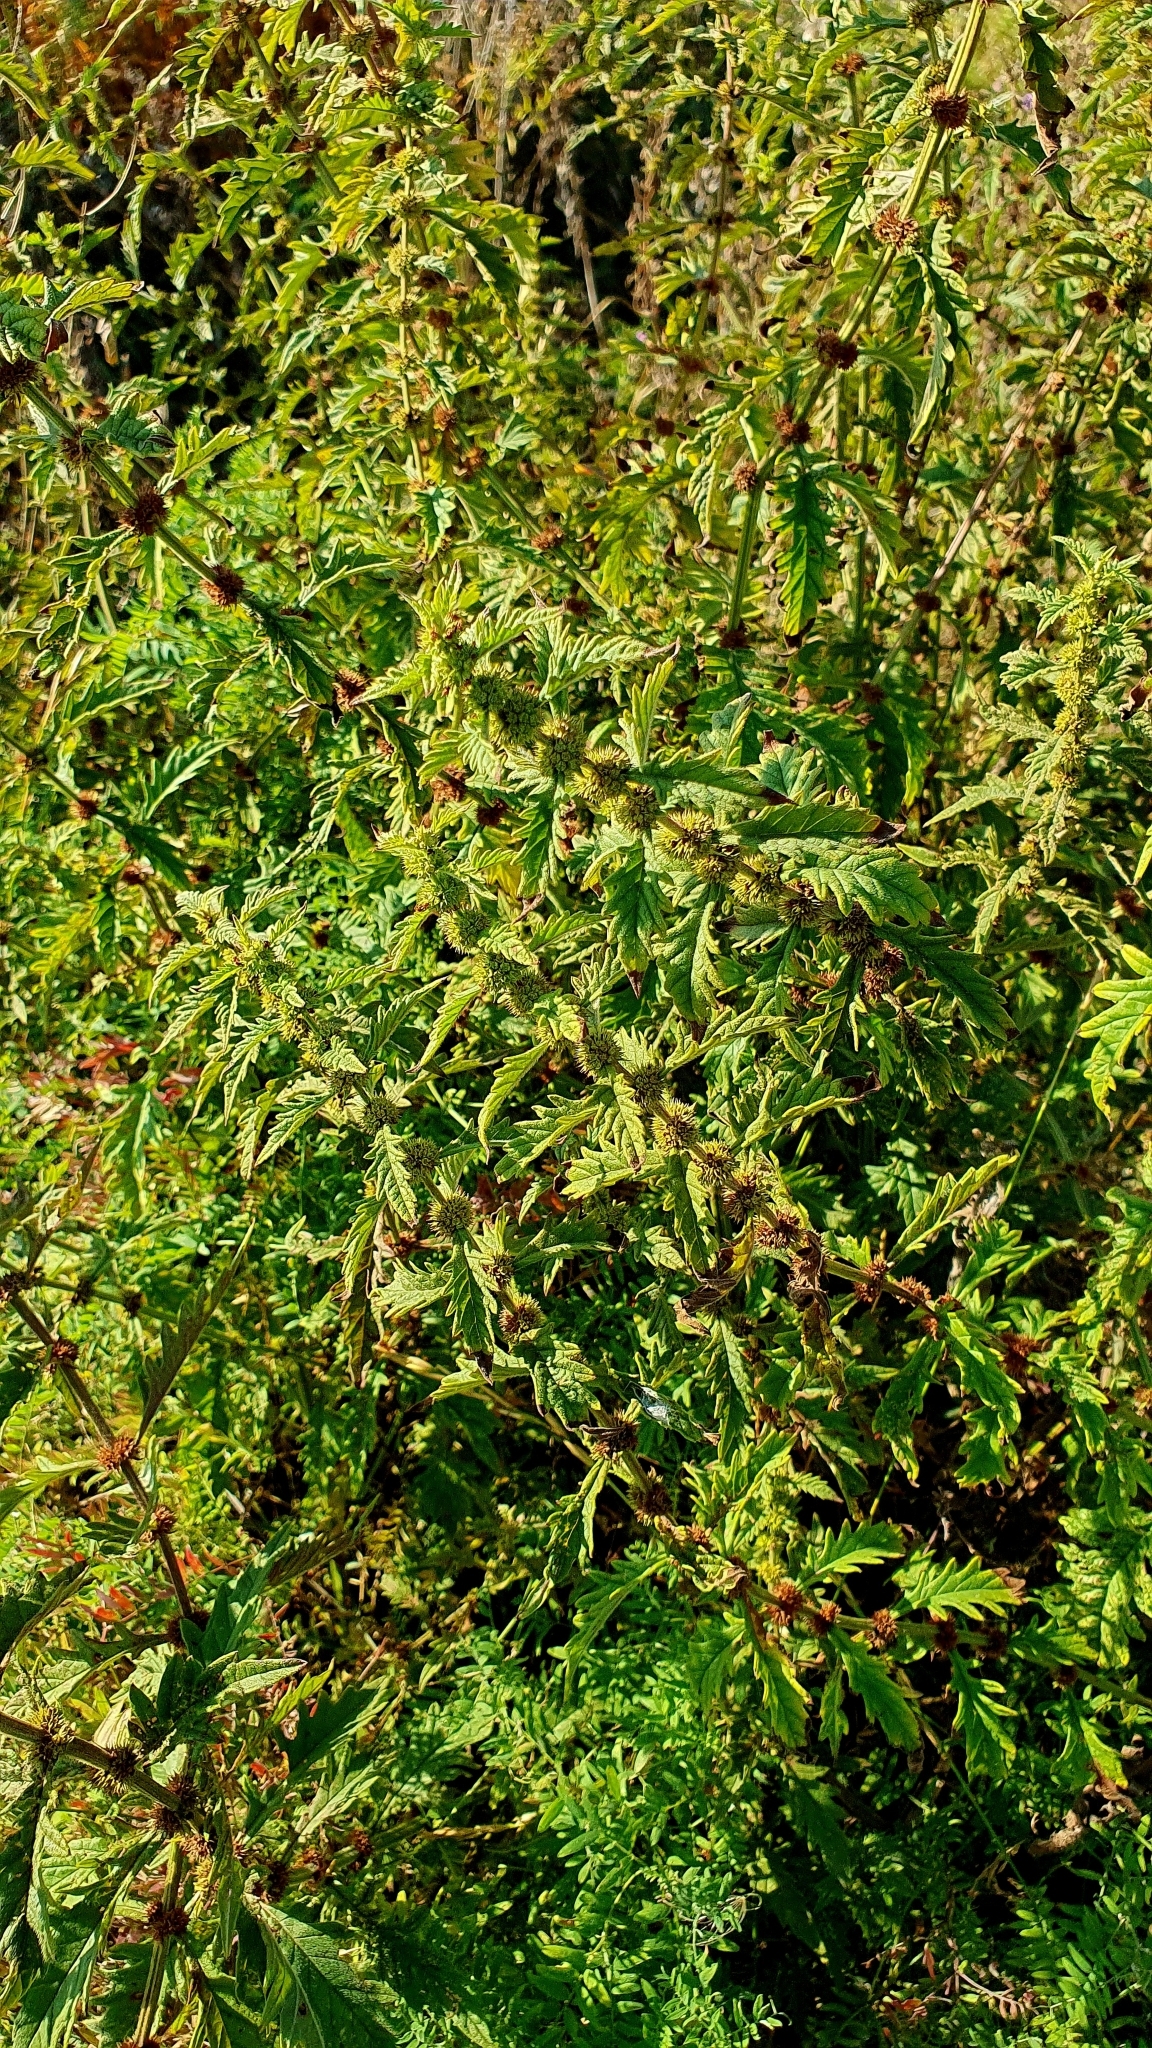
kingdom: Plantae
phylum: Tracheophyta
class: Magnoliopsida
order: Lamiales
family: Lamiaceae
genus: Lycopus
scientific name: Lycopus exaltatus
